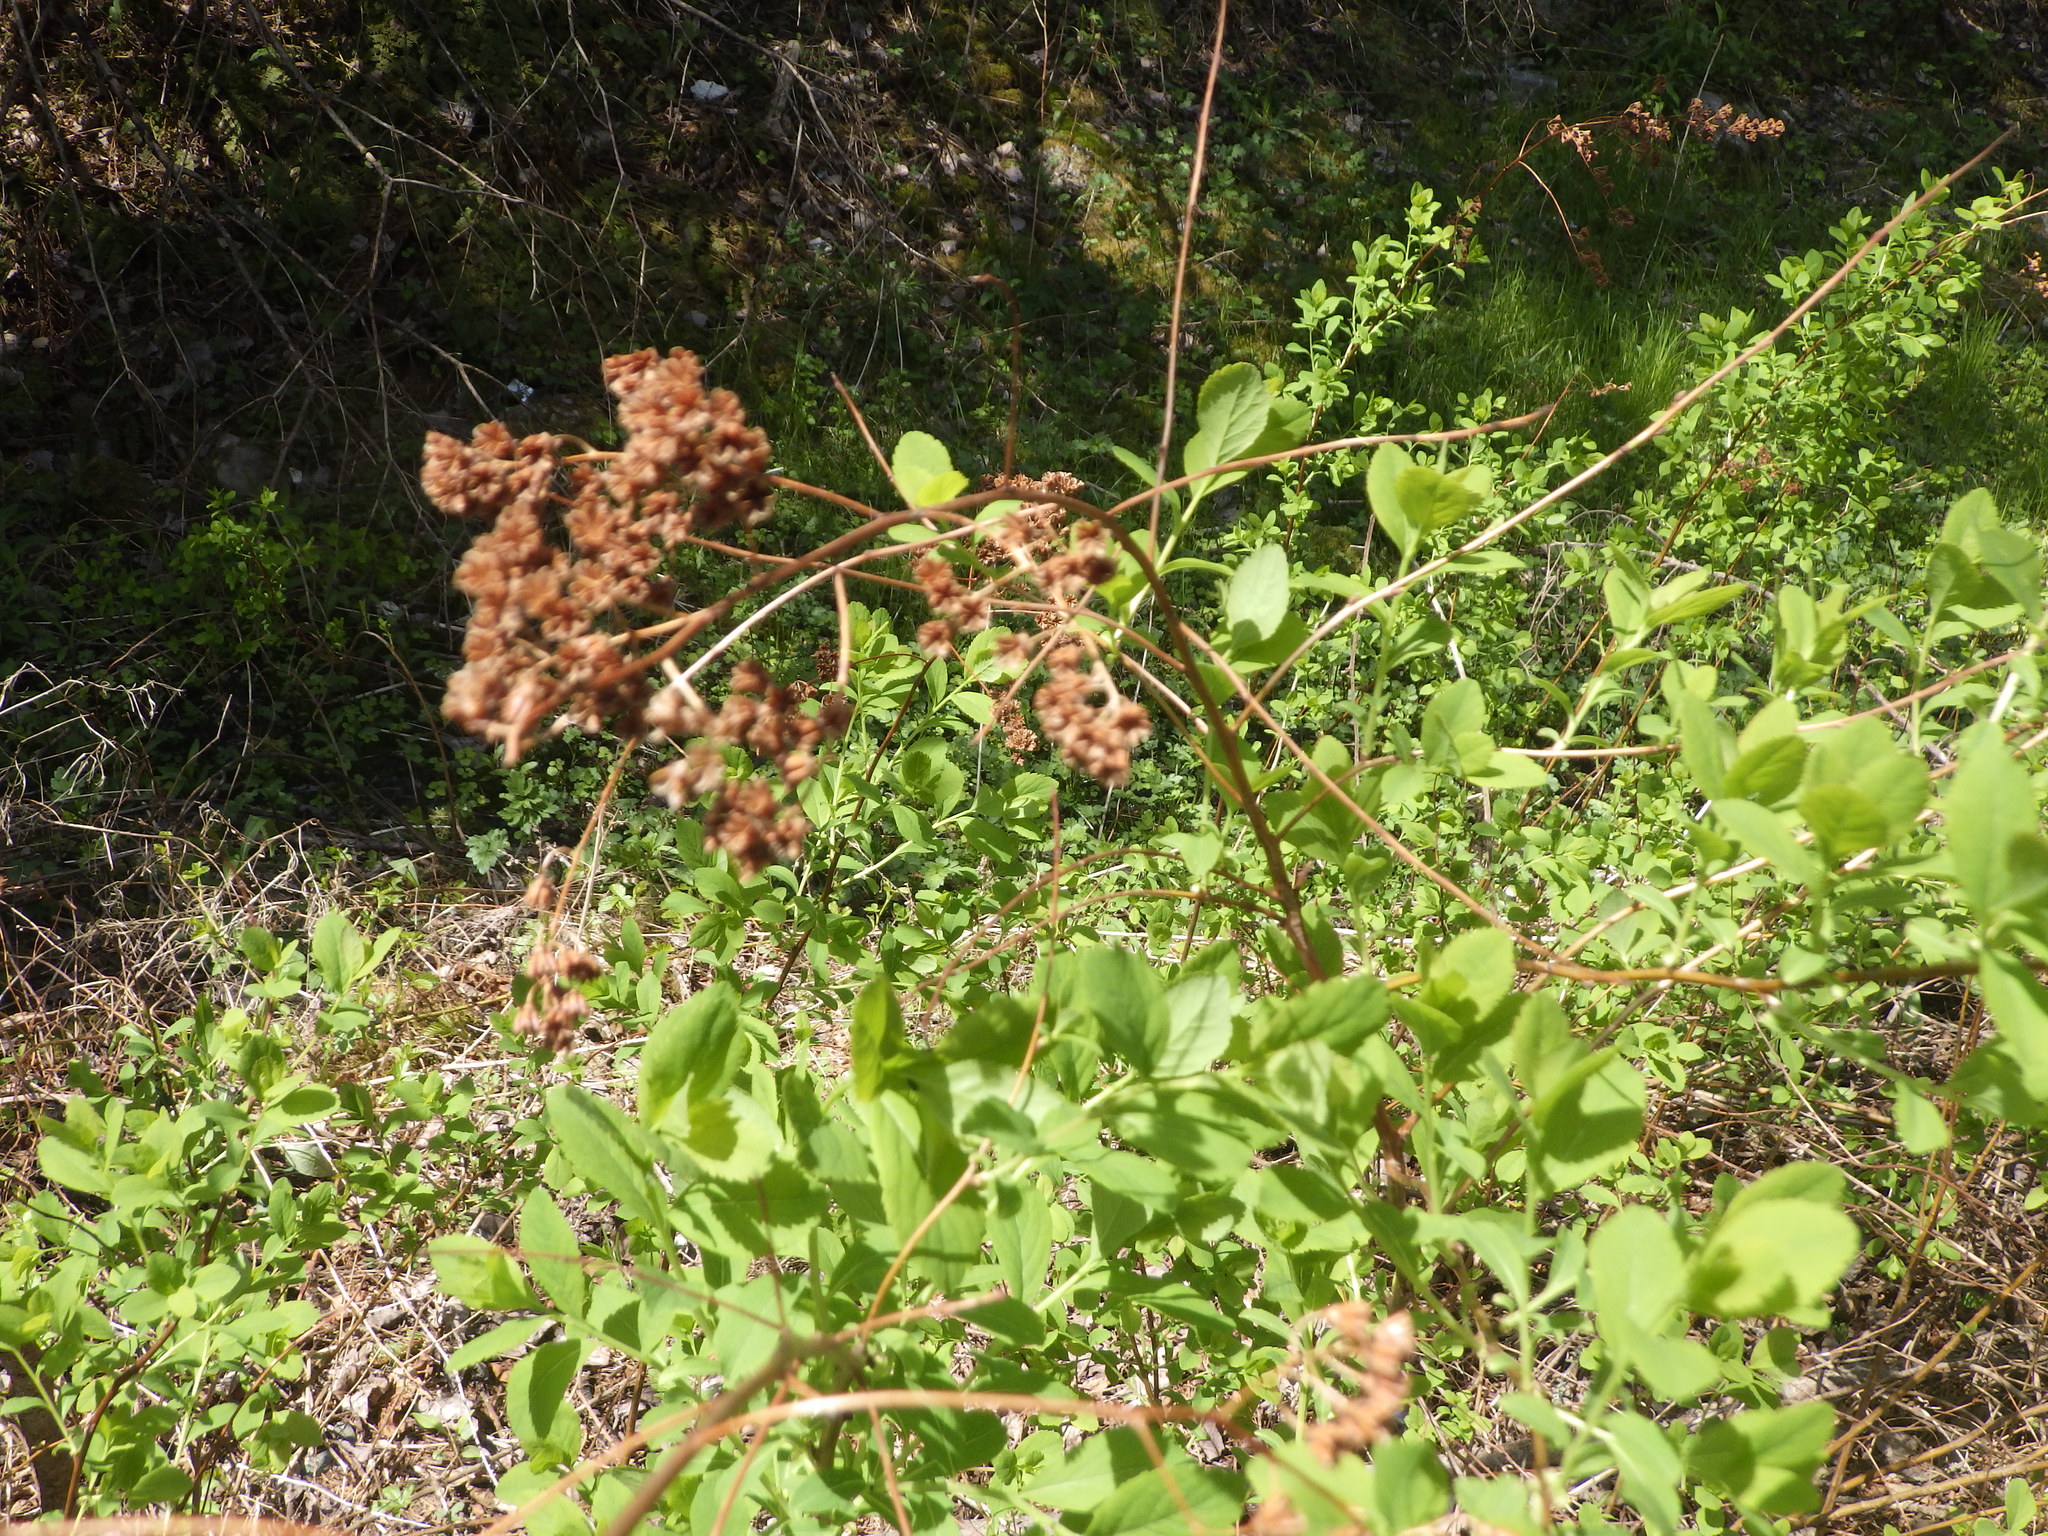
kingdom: Plantae
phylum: Tracheophyta
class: Magnoliopsida
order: Rosales
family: Rosaceae
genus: Spiraea
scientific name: Spiraea alba
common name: Pale bridewort
